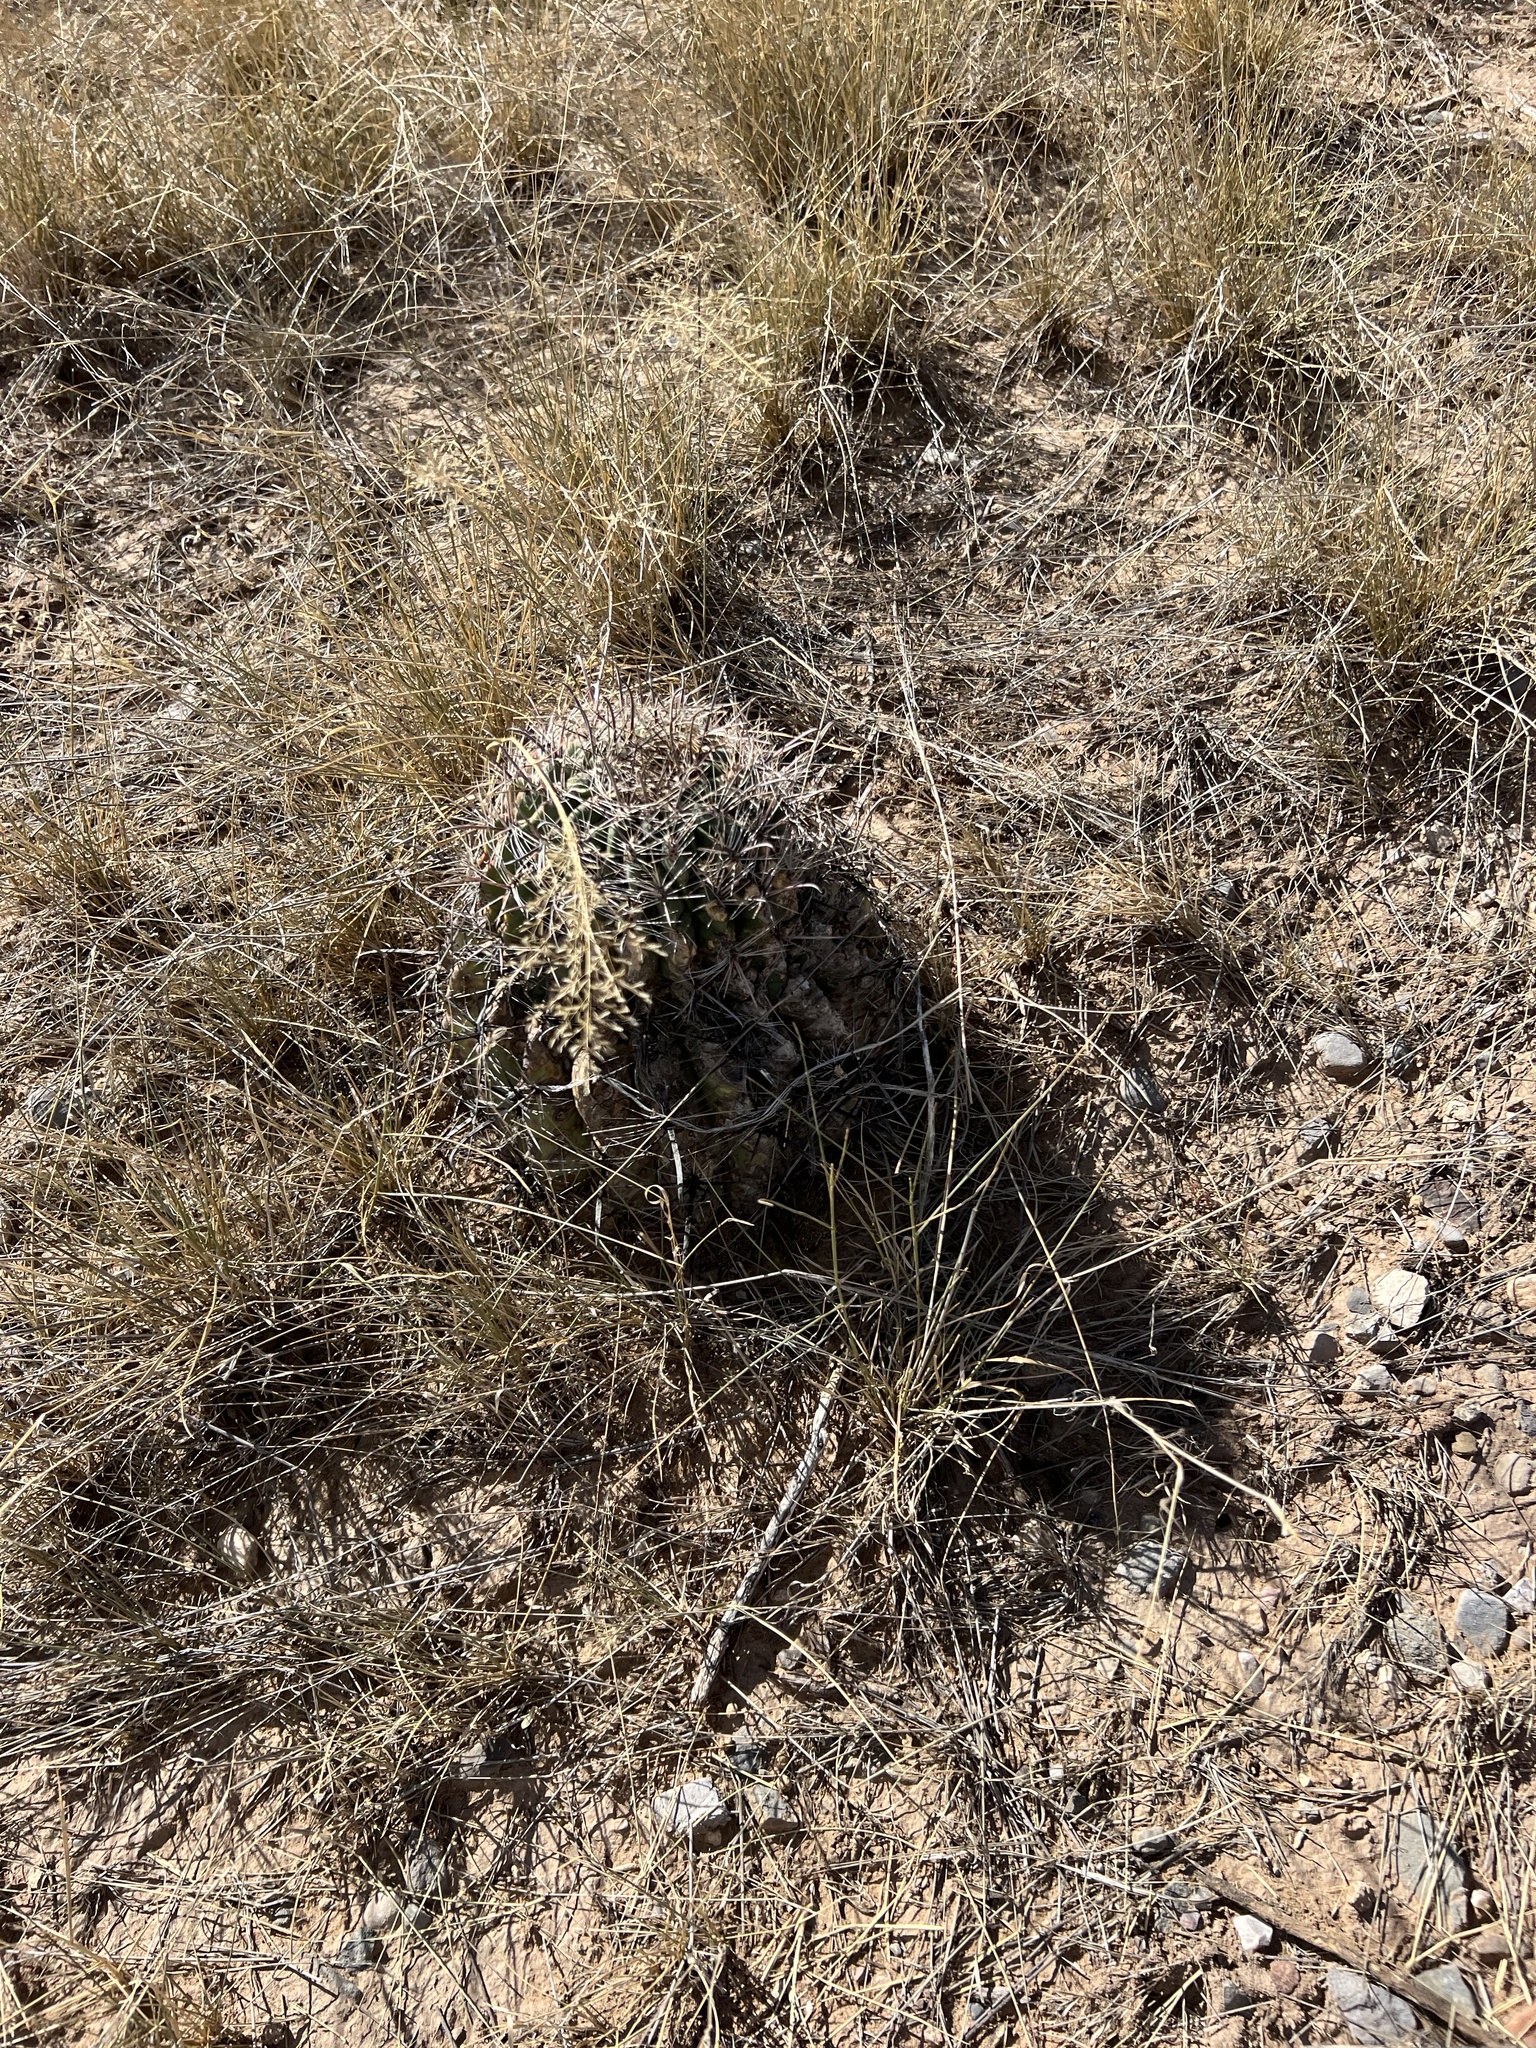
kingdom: Plantae
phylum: Tracheophyta
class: Magnoliopsida
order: Caryophyllales
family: Cactaceae
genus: Ferocactus
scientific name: Ferocactus wislizeni
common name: Candy barrel cactus
